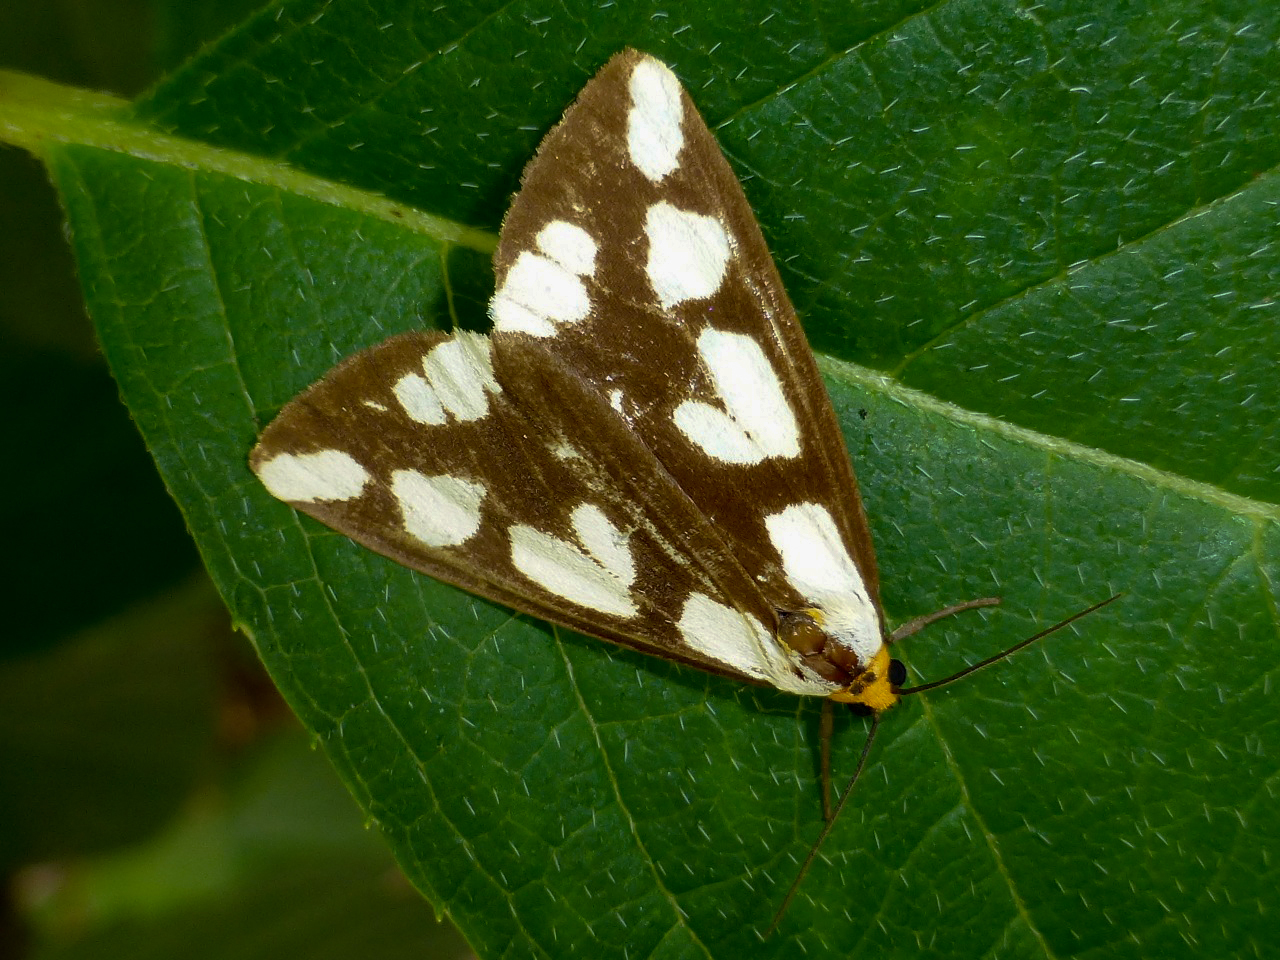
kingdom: Animalia
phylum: Arthropoda
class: Insecta
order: Lepidoptera
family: Erebidae
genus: Haploa
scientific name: Haploa confusa
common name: Confused haploa moth
